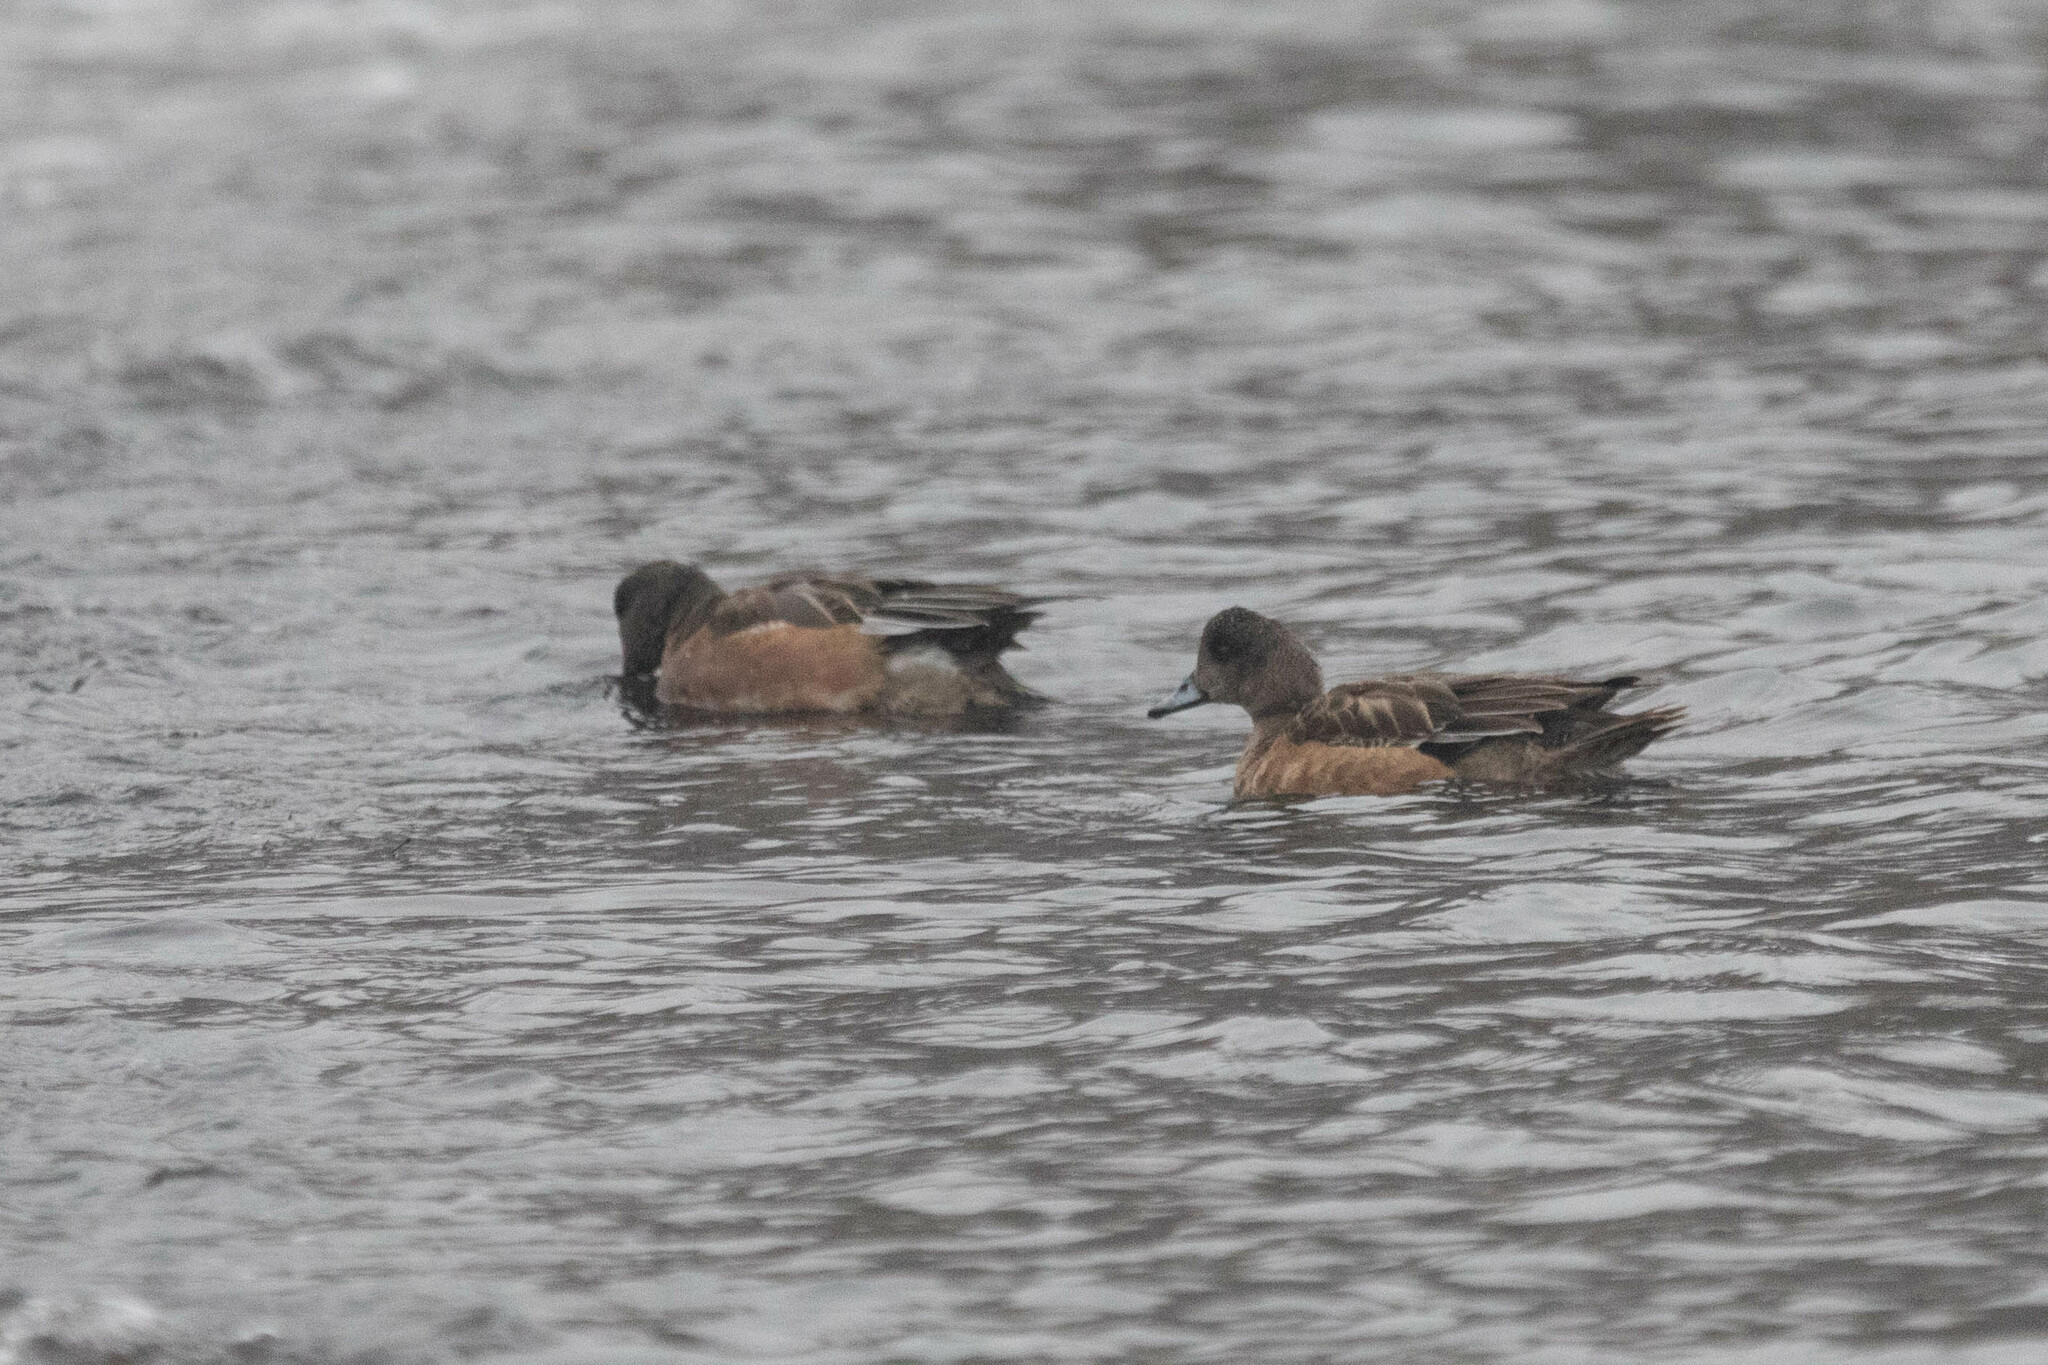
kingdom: Animalia
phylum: Chordata
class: Aves
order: Anseriformes
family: Anatidae
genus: Mareca
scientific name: Mareca americana
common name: American wigeon
